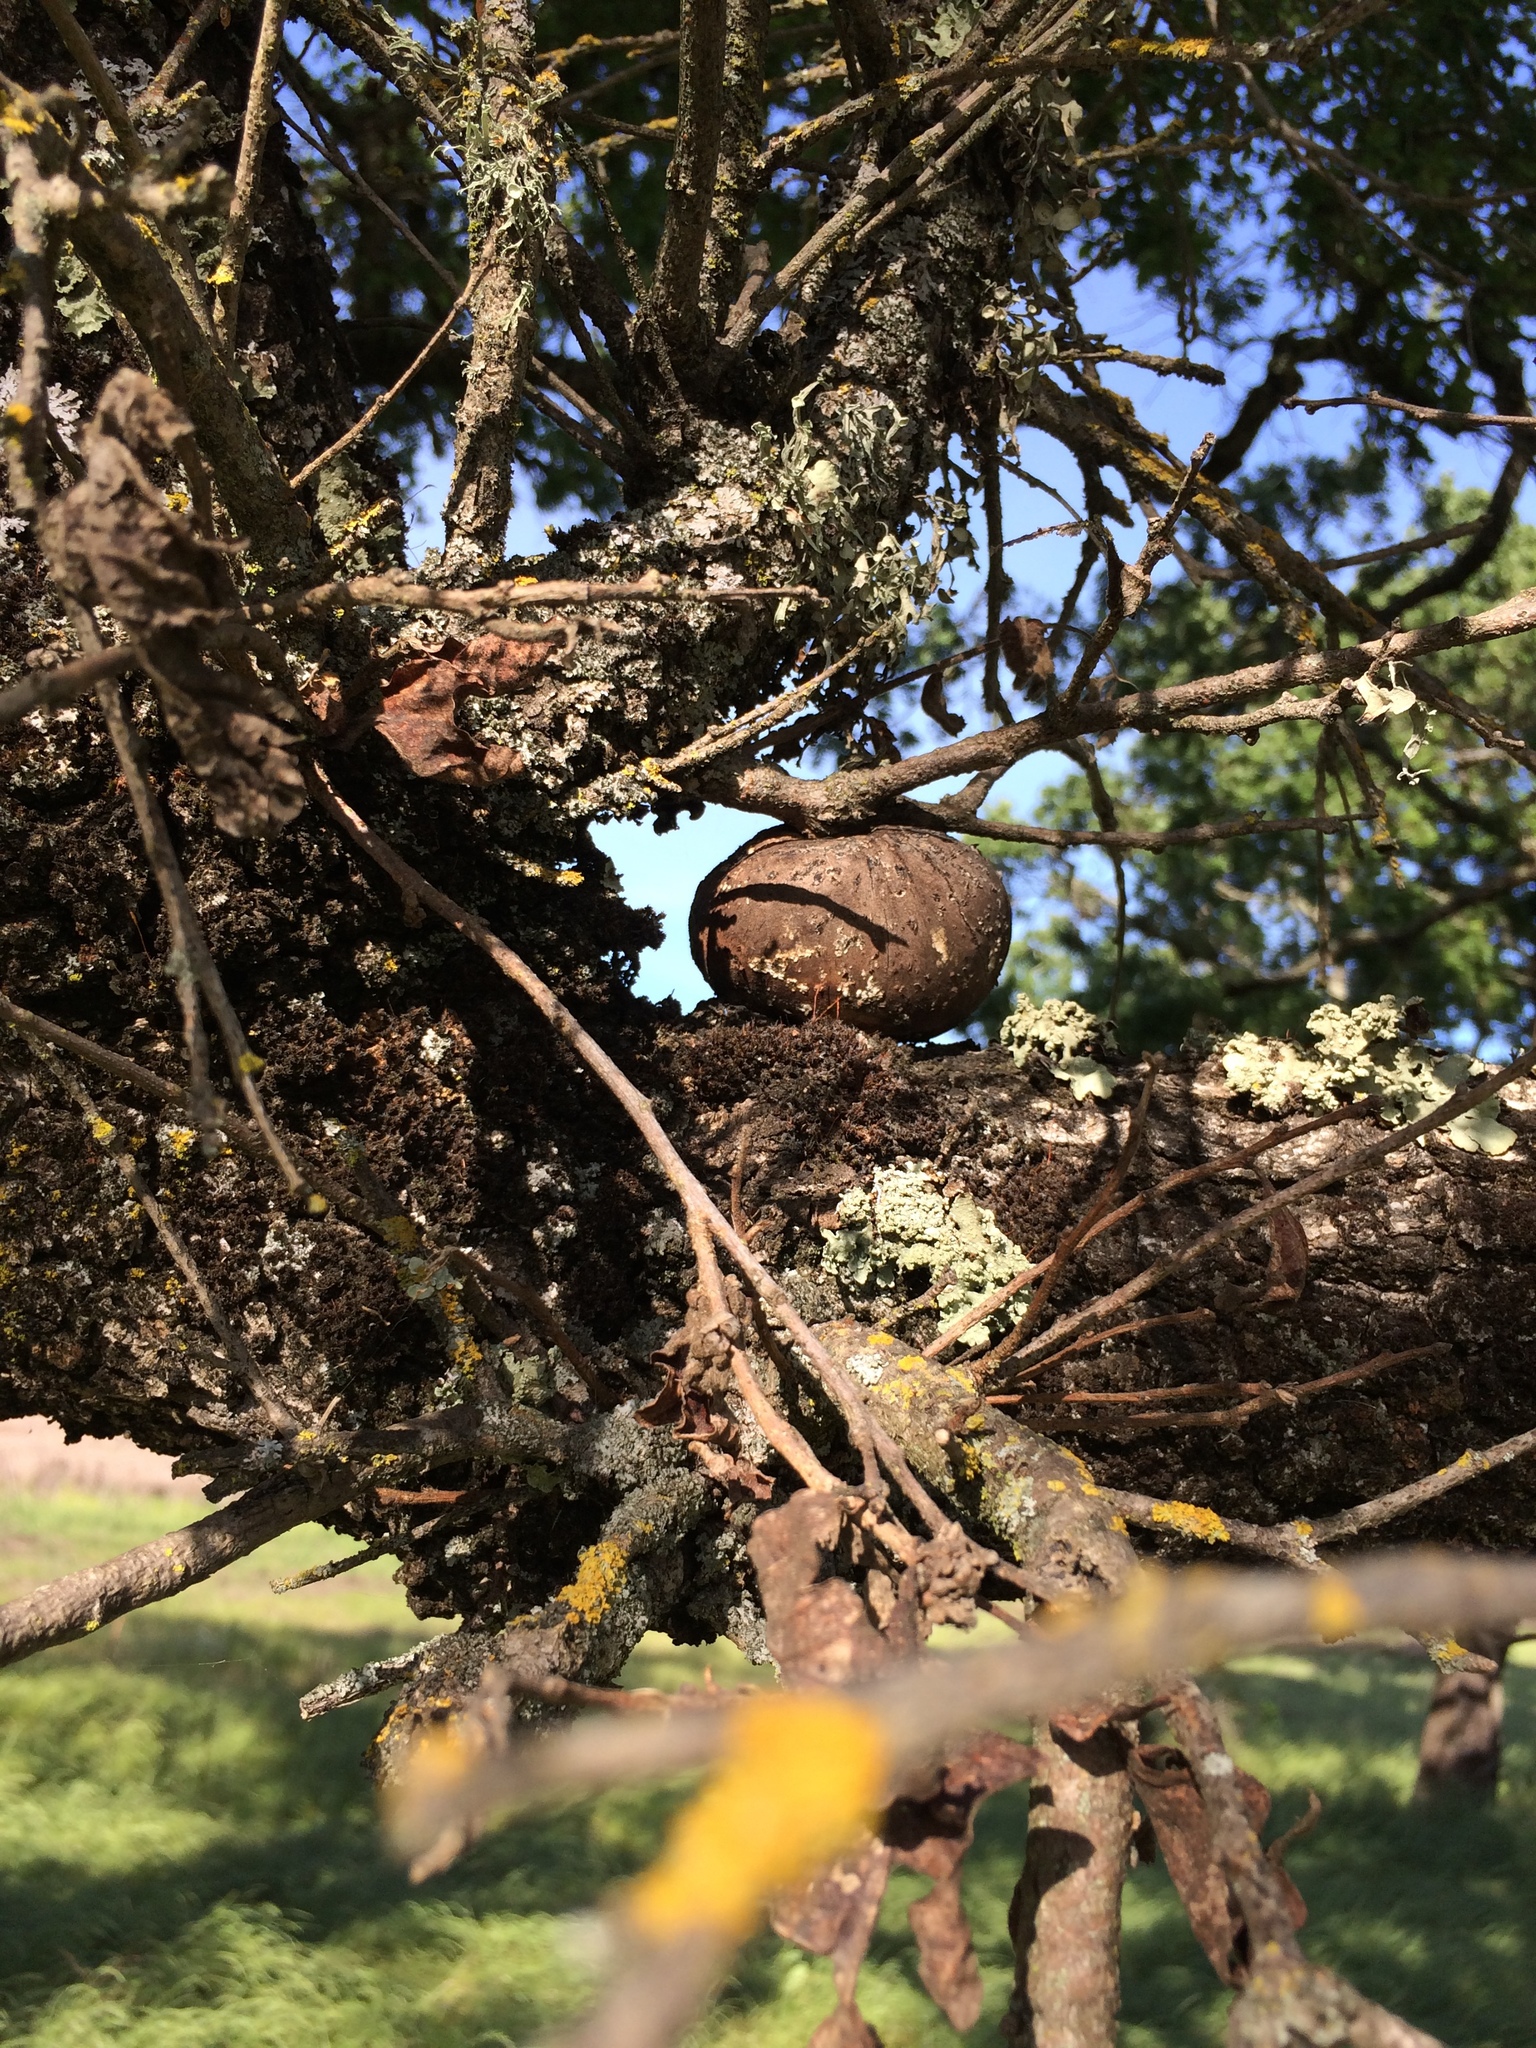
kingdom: Plantae
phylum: Tracheophyta
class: Magnoliopsida
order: Fagales
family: Fagaceae
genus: Quercus
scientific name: Quercus lobata
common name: Valley oak
